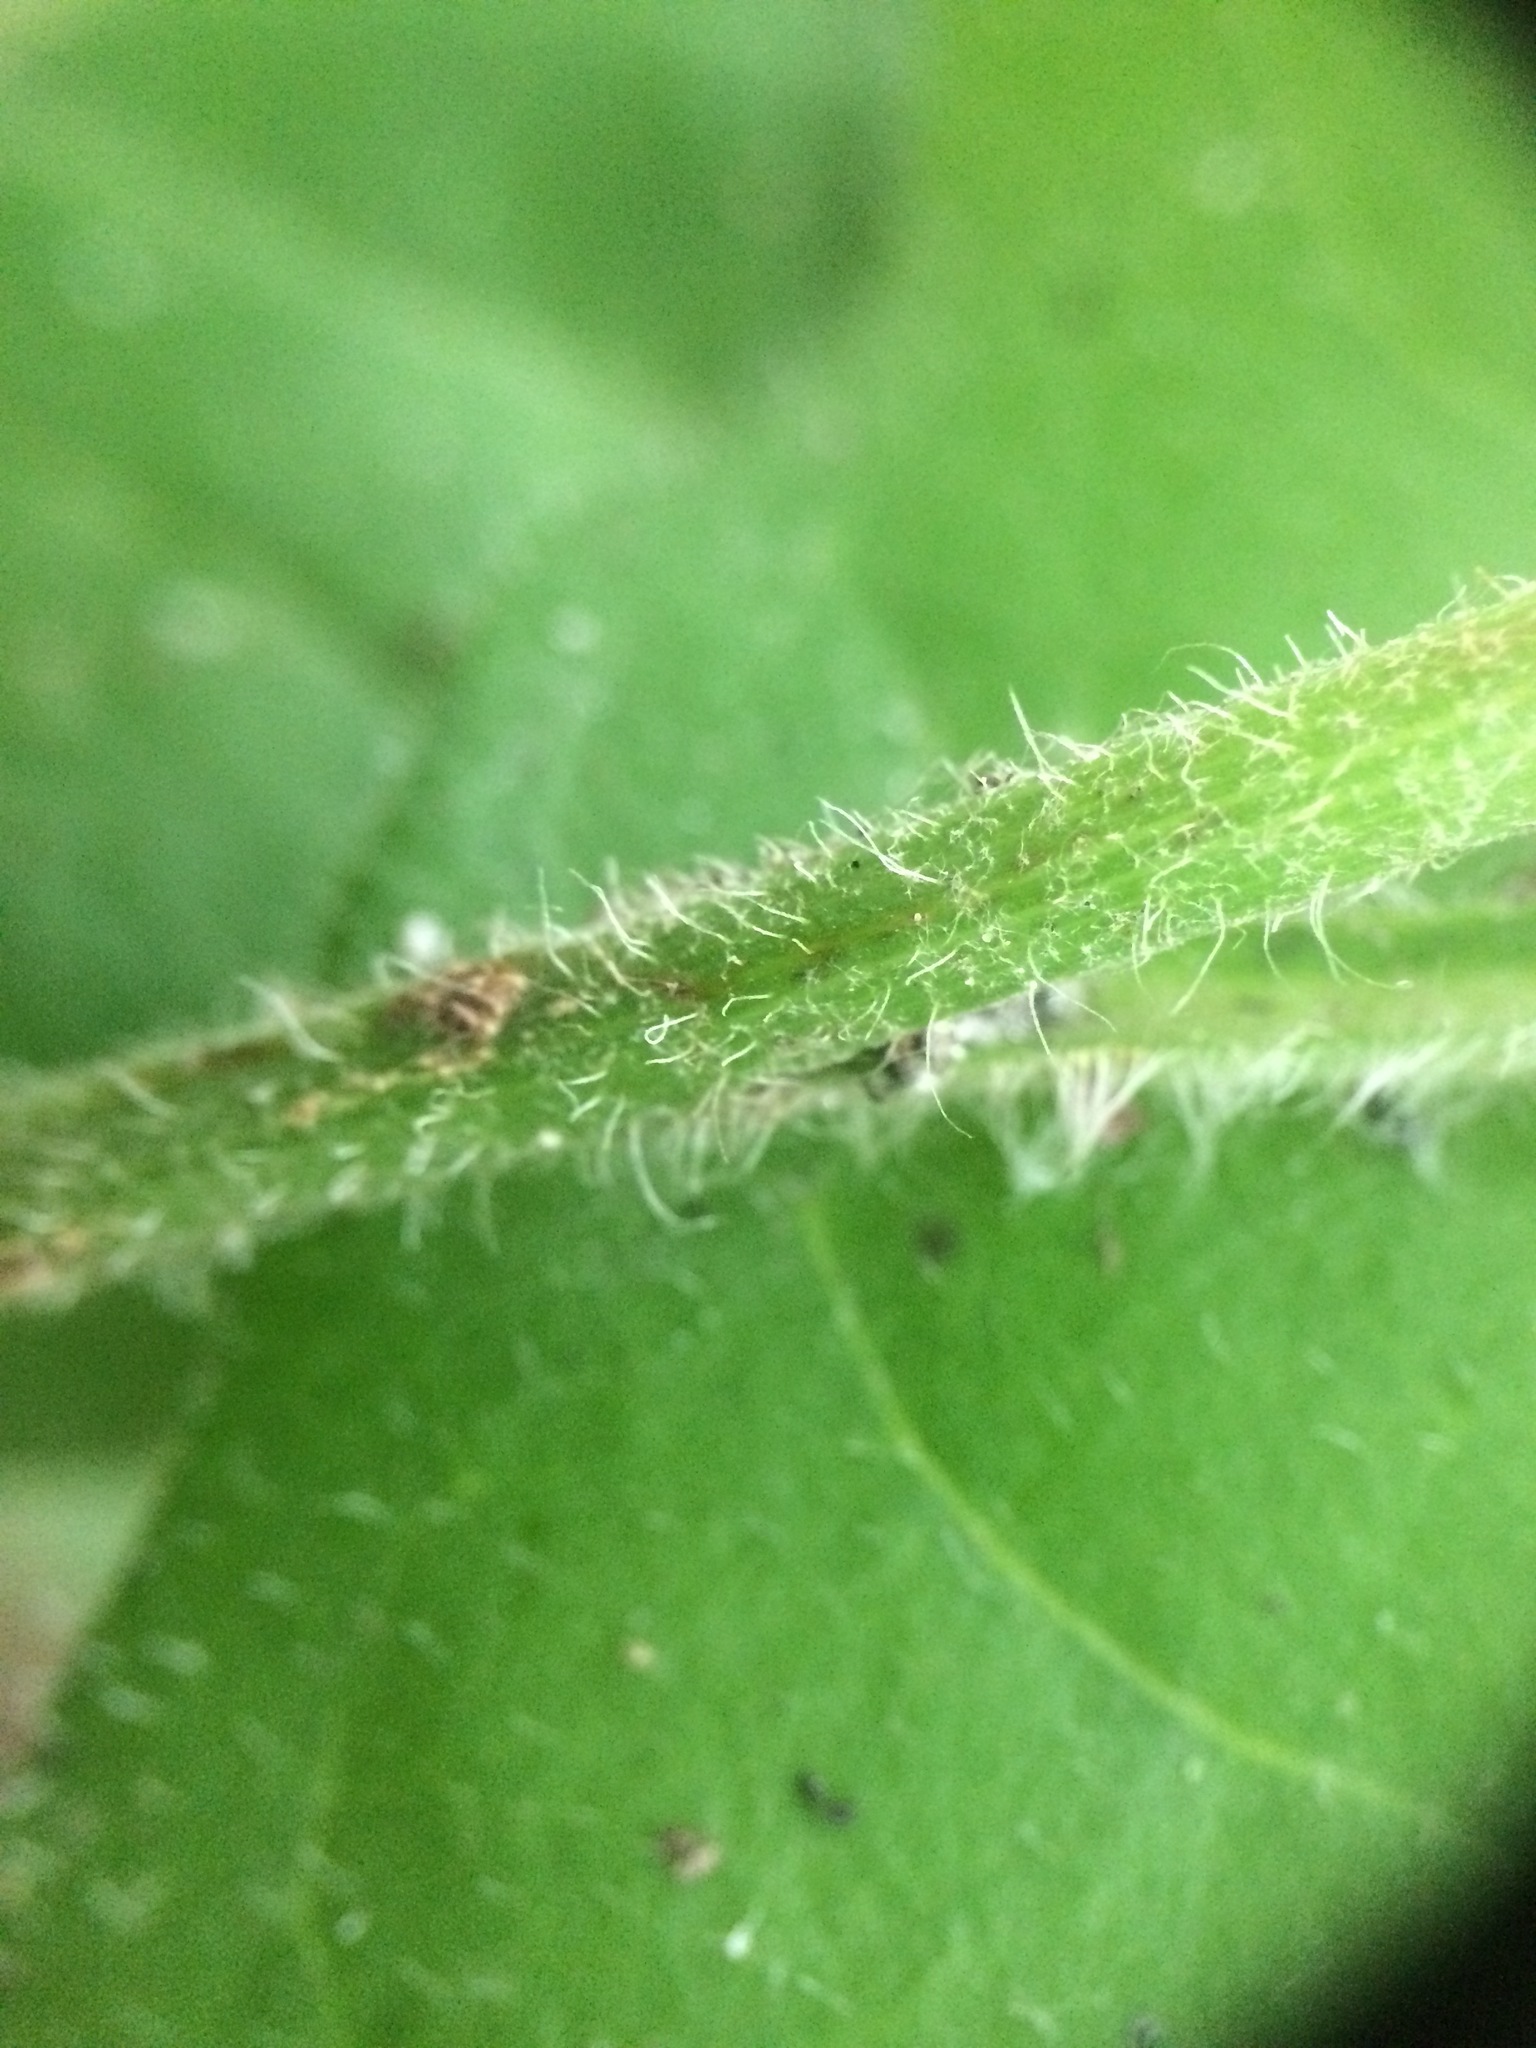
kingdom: Plantae
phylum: Tracheophyta
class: Magnoliopsida
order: Asterales
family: Asteraceae
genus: Hieracium
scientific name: Hieracium lachenalii
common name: Common hawkweed
